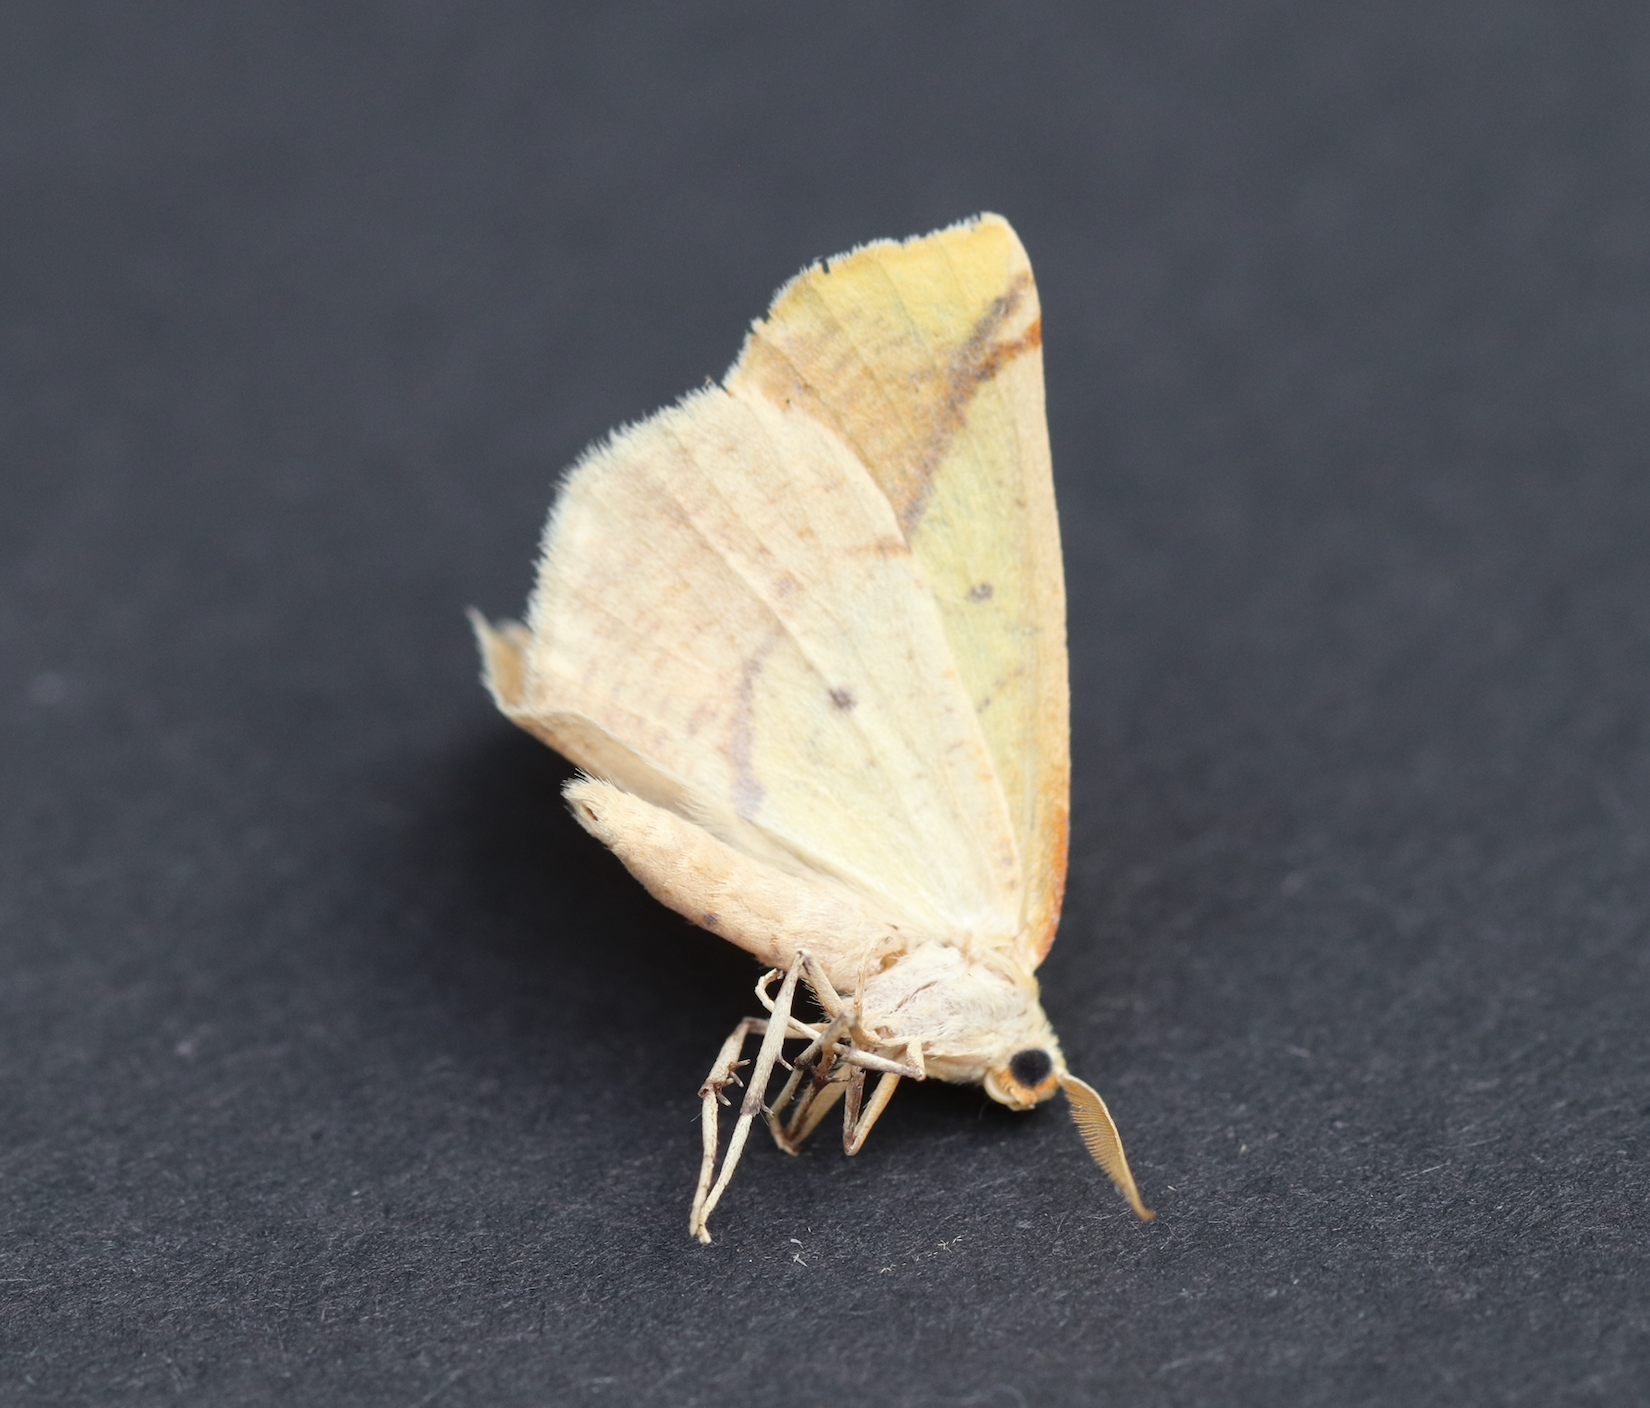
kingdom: Animalia
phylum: Arthropoda
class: Insecta
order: Lepidoptera
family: Geometridae
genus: Sicya
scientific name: Sicya macularia
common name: Sharp-lined yellow
